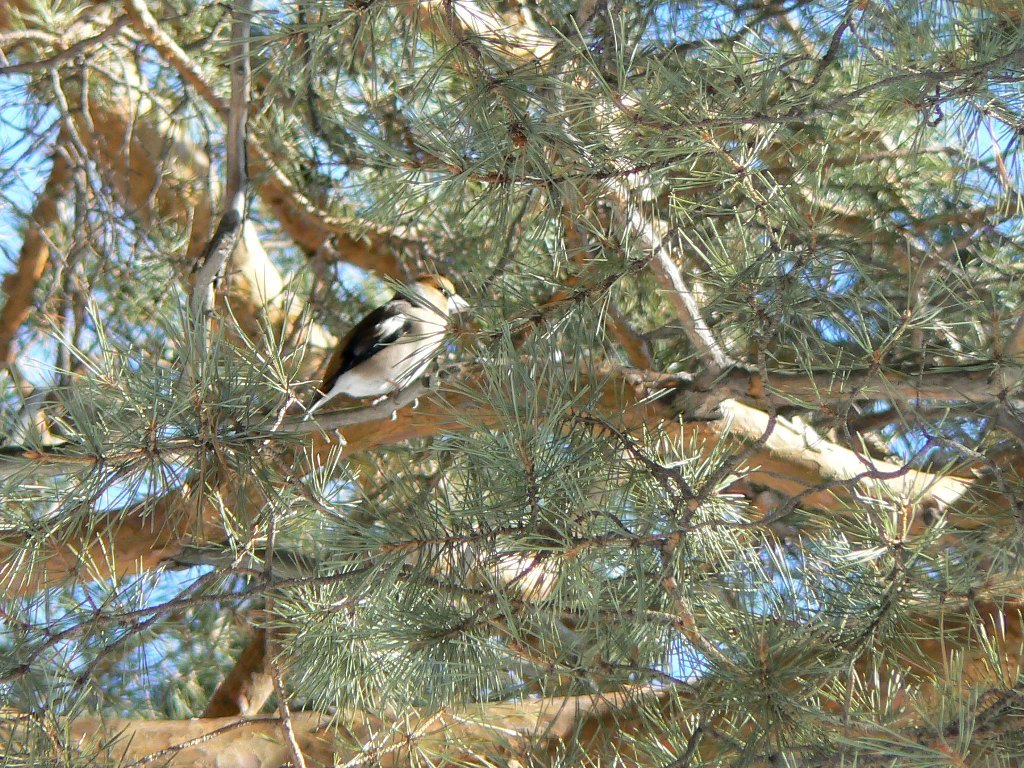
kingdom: Animalia
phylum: Chordata
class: Aves
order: Passeriformes
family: Fringillidae
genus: Coccothraustes
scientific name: Coccothraustes coccothraustes
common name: Hawfinch
